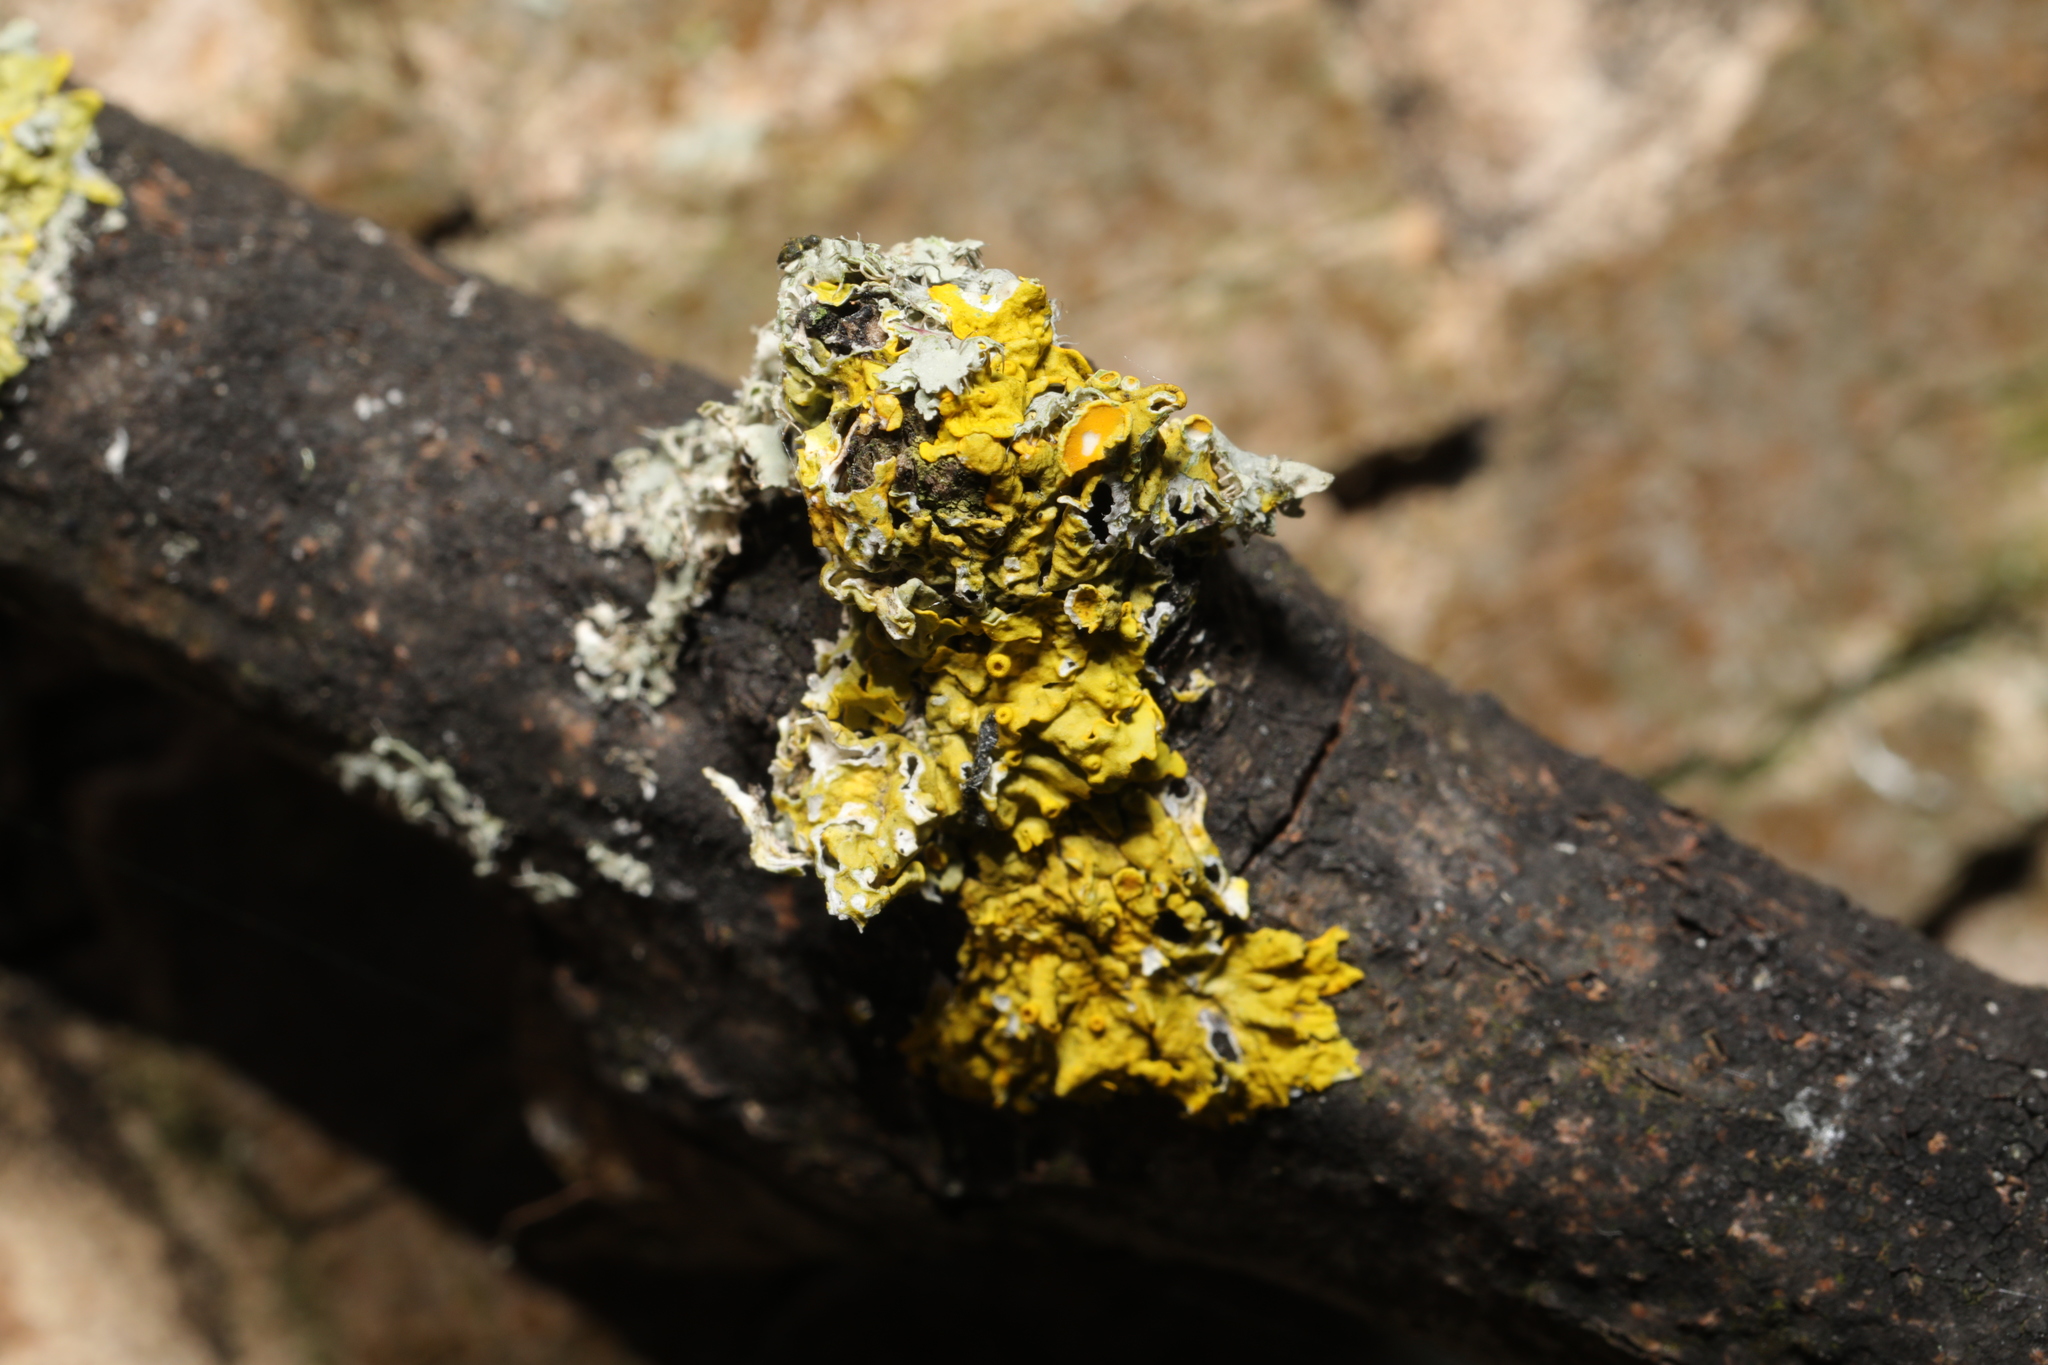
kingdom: Fungi
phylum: Ascomycota
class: Lecanoromycetes
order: Teloschistales
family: Teloschistaceae
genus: Xanthoria
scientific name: Xanthoria parietina
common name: Common orange lichen
